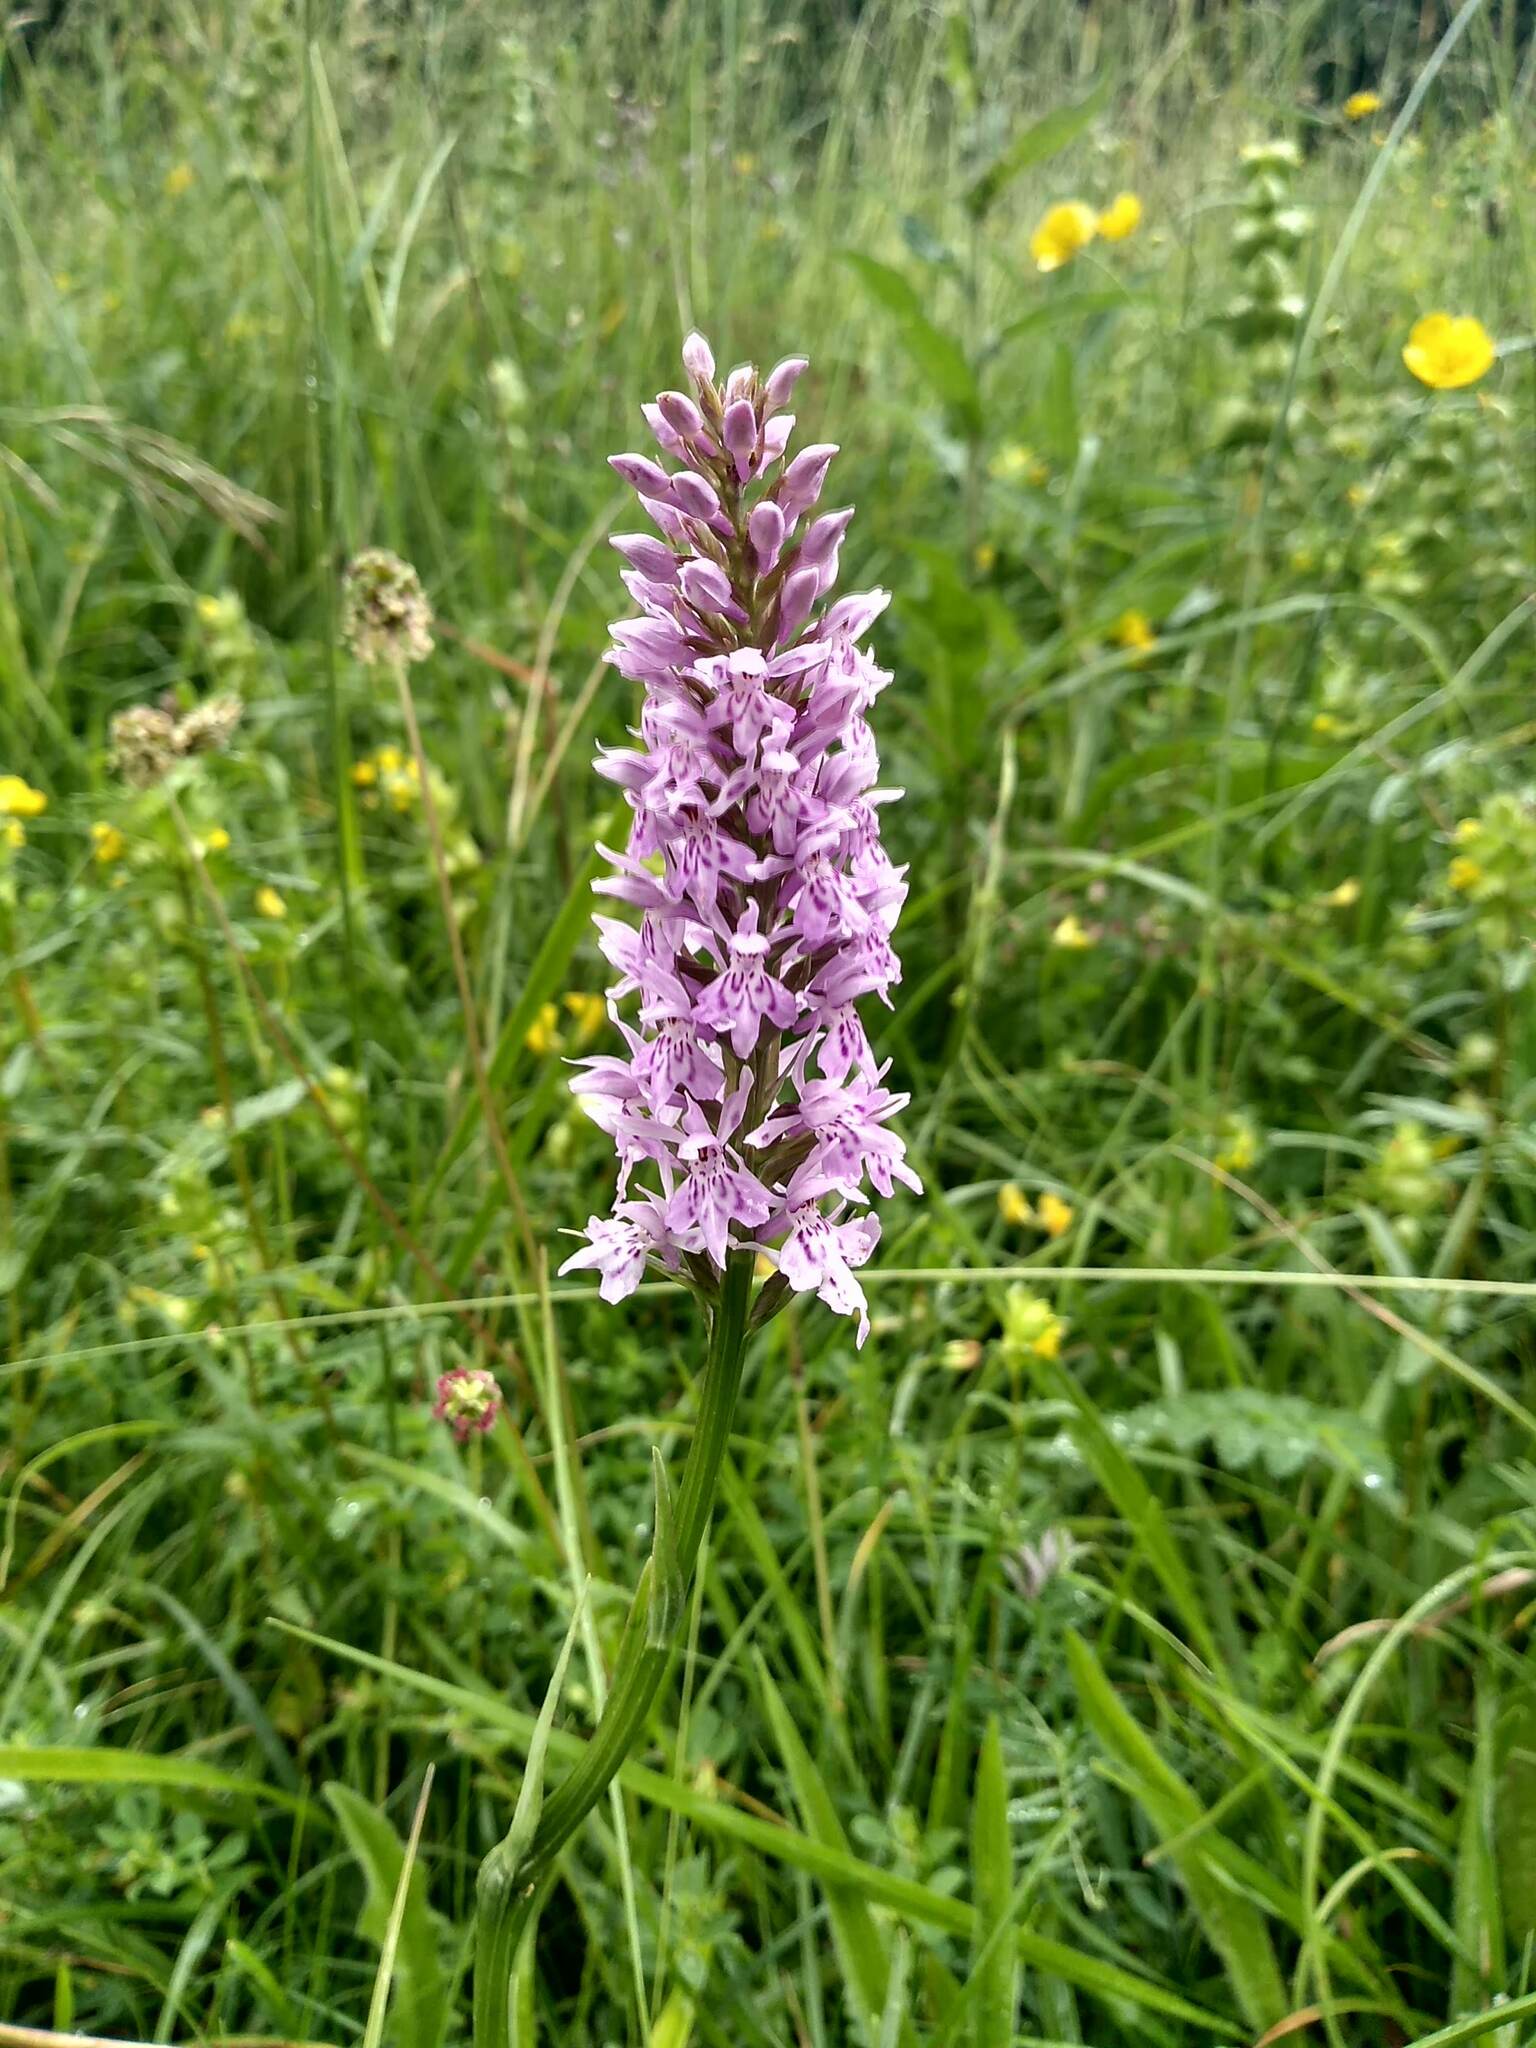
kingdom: Plantae
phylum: Tracheophyta
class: Liliopsida
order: Asparagales
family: Orchidaceae
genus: Dactylorhiza
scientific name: Dactylorhiza maculata
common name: Heath spotted-orchid
